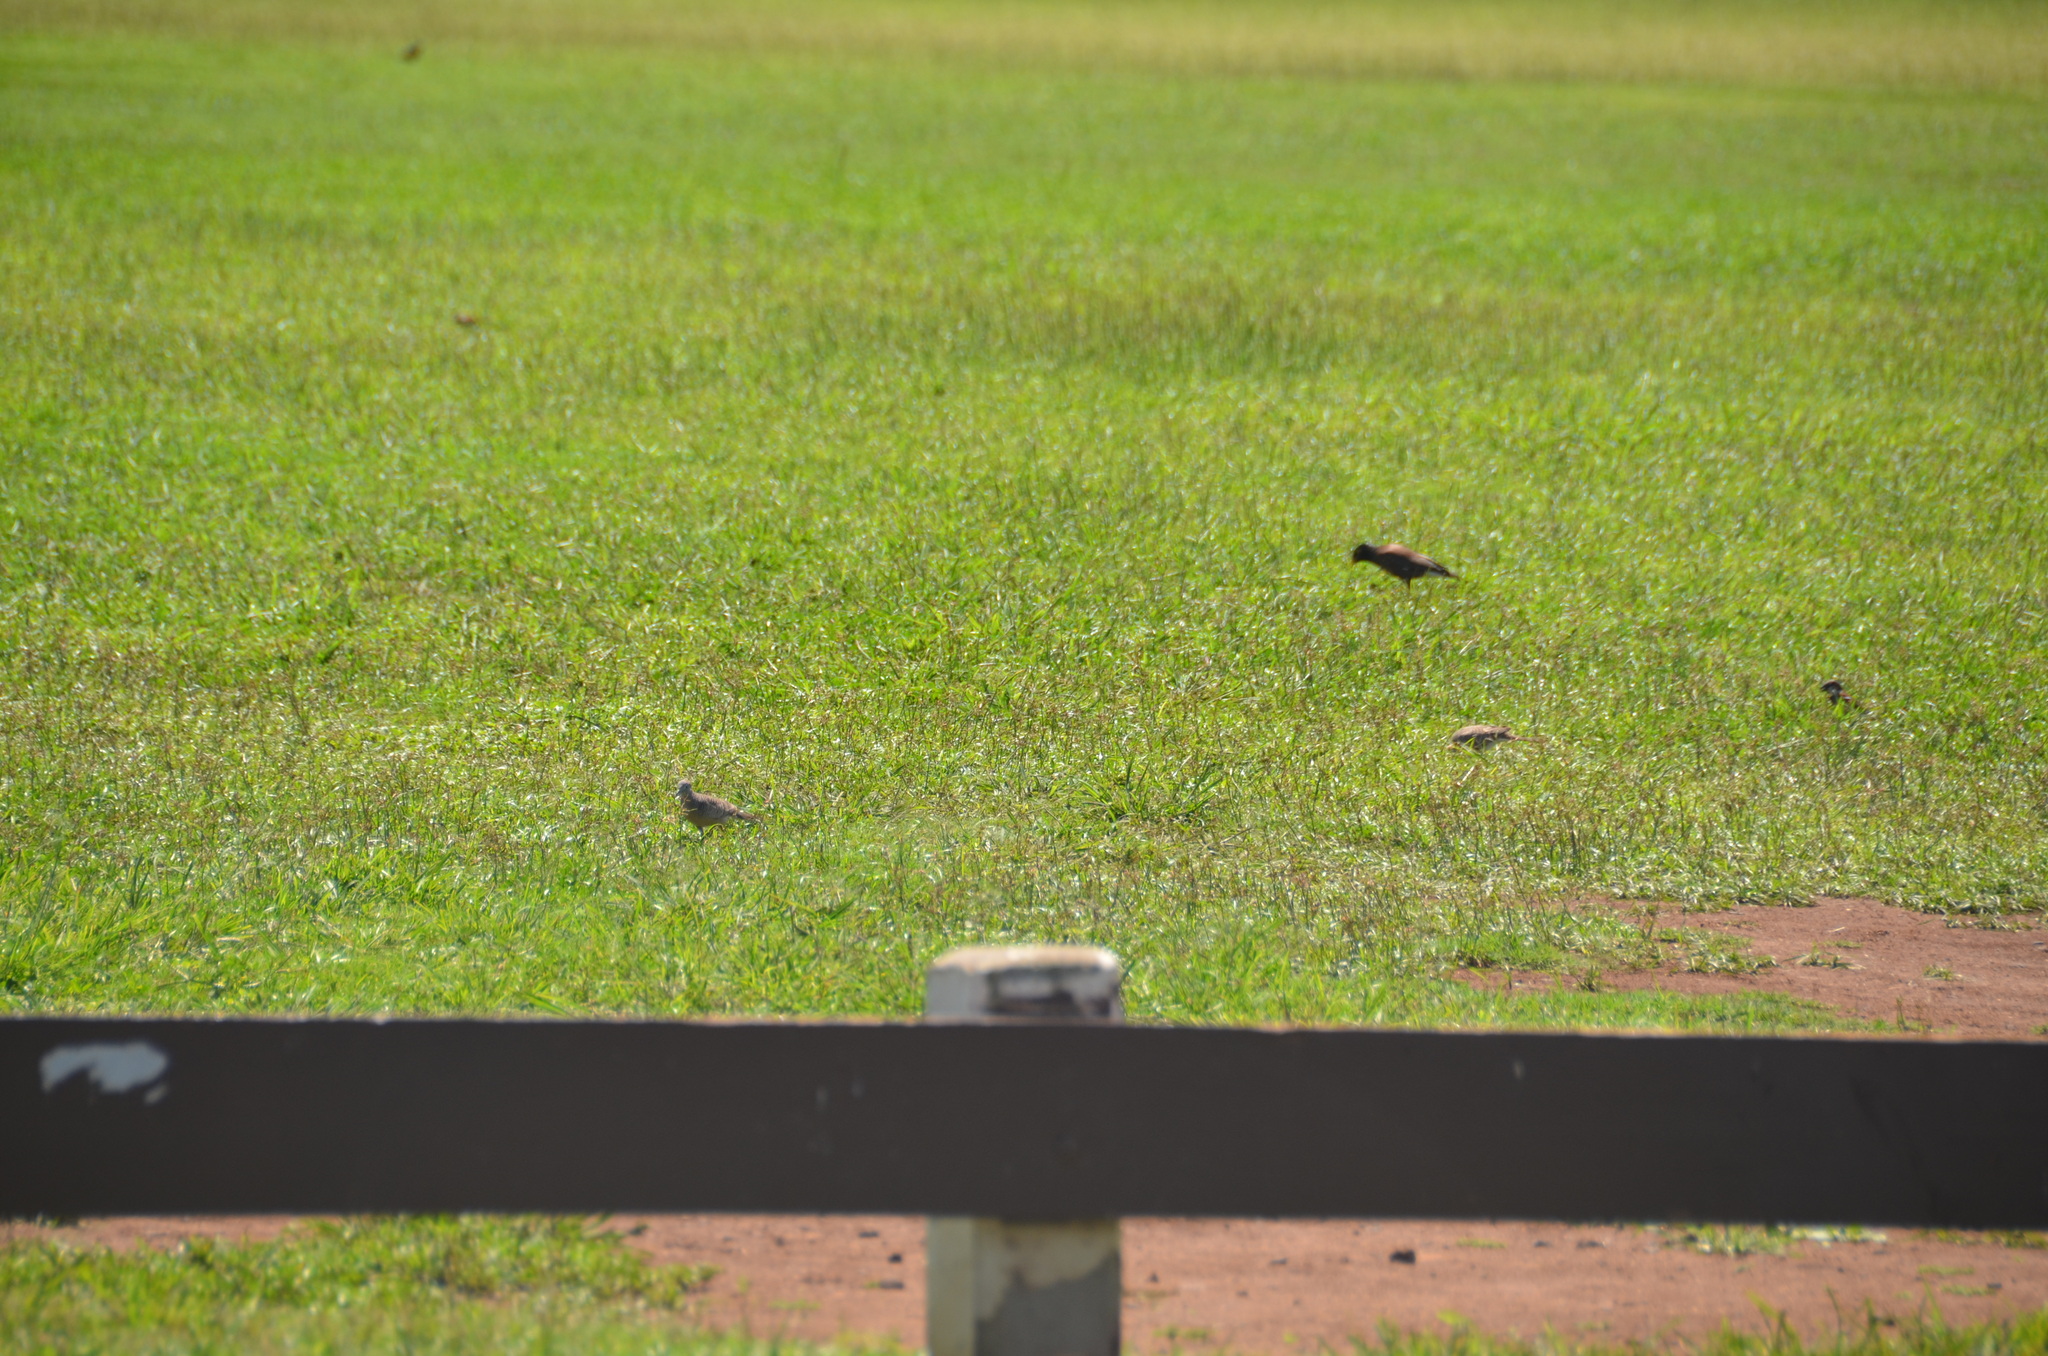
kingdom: Animalia
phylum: Chordata
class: Aves
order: Columbiformes
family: Columbidae
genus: Geopelia
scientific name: Geopelia striata
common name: Zebra dove
